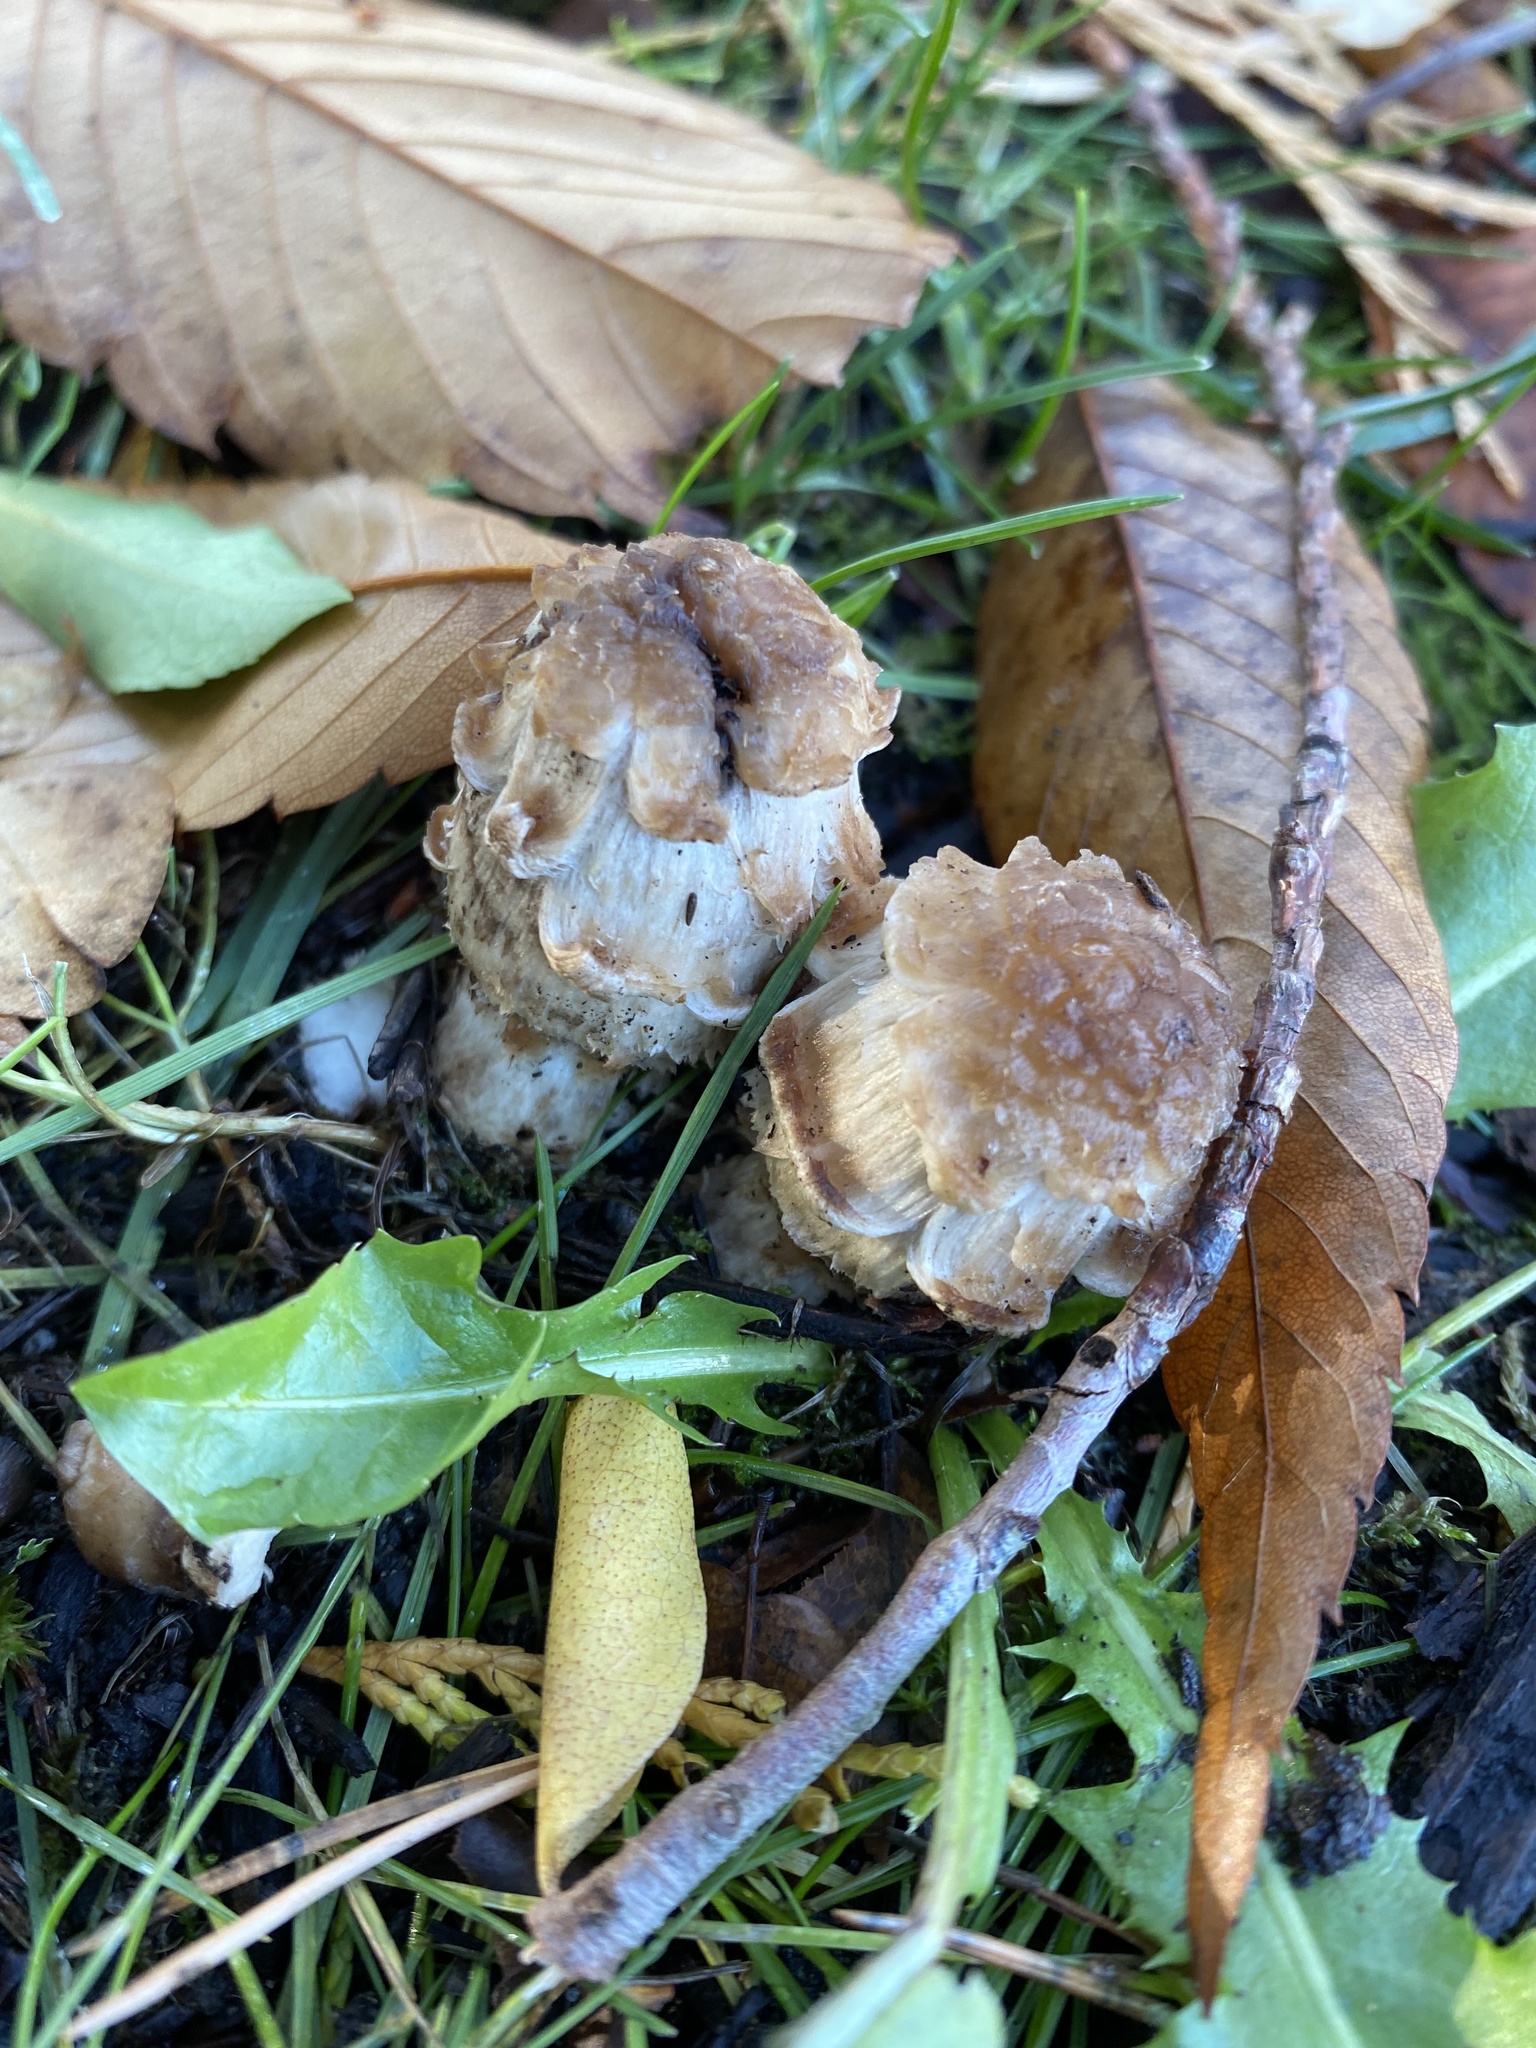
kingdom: Fungi
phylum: Basidiomycota
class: Agaricomycetes
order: Agaricales
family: Agaricaceae
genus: Coprinus
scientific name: Coprinus comatus
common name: Lawyer's wig
